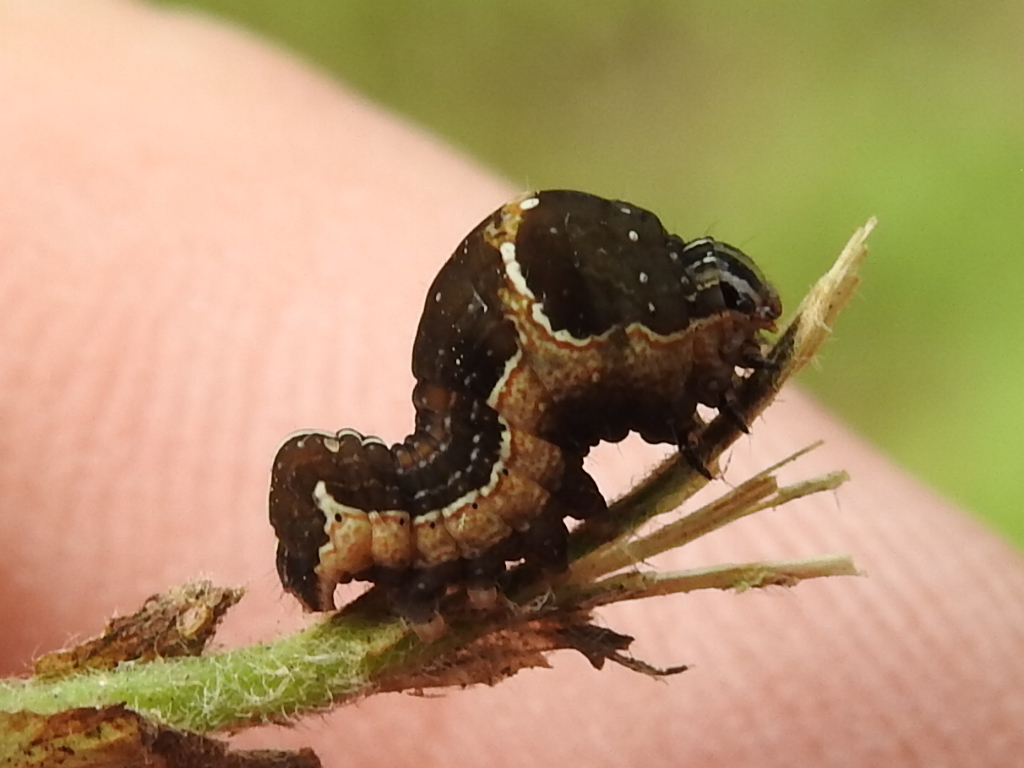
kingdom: Animalia
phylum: Arthropoda
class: Insecta
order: Lepidoptera
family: Noctuidae
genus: Galgula
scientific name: Galgula partita
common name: Wedgeling
